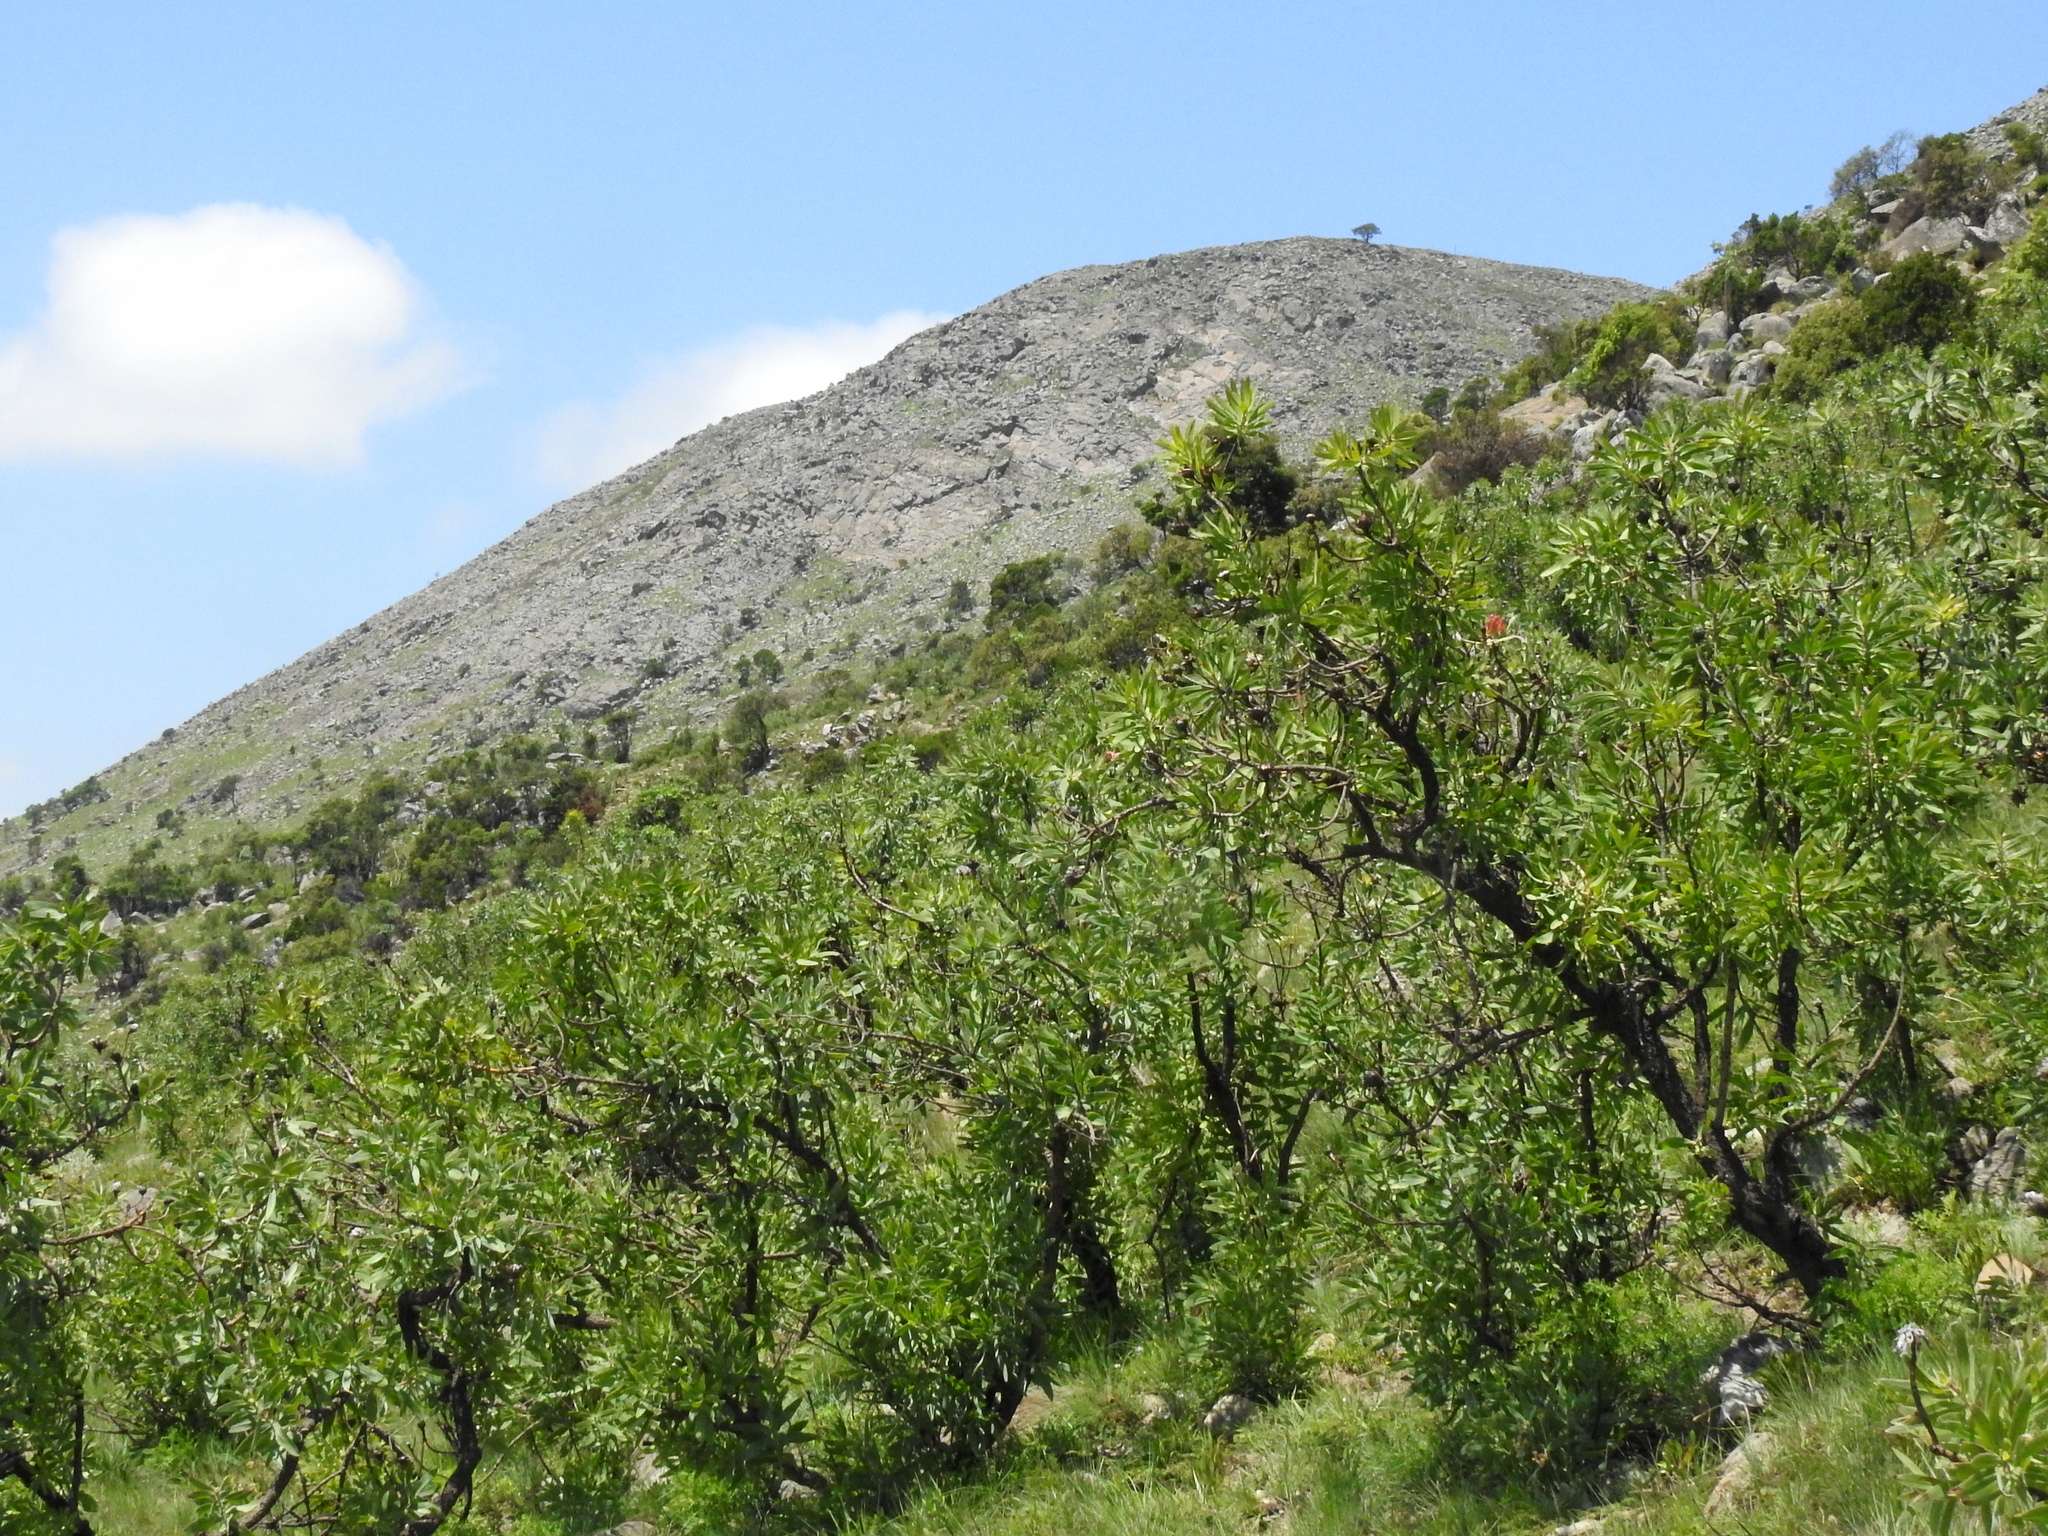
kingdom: Plantae
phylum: Tracheophyta
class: Magnoliopsida
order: Proteales
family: Proteaceae
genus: Protea
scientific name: Protea caffra
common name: Common sugarbush
